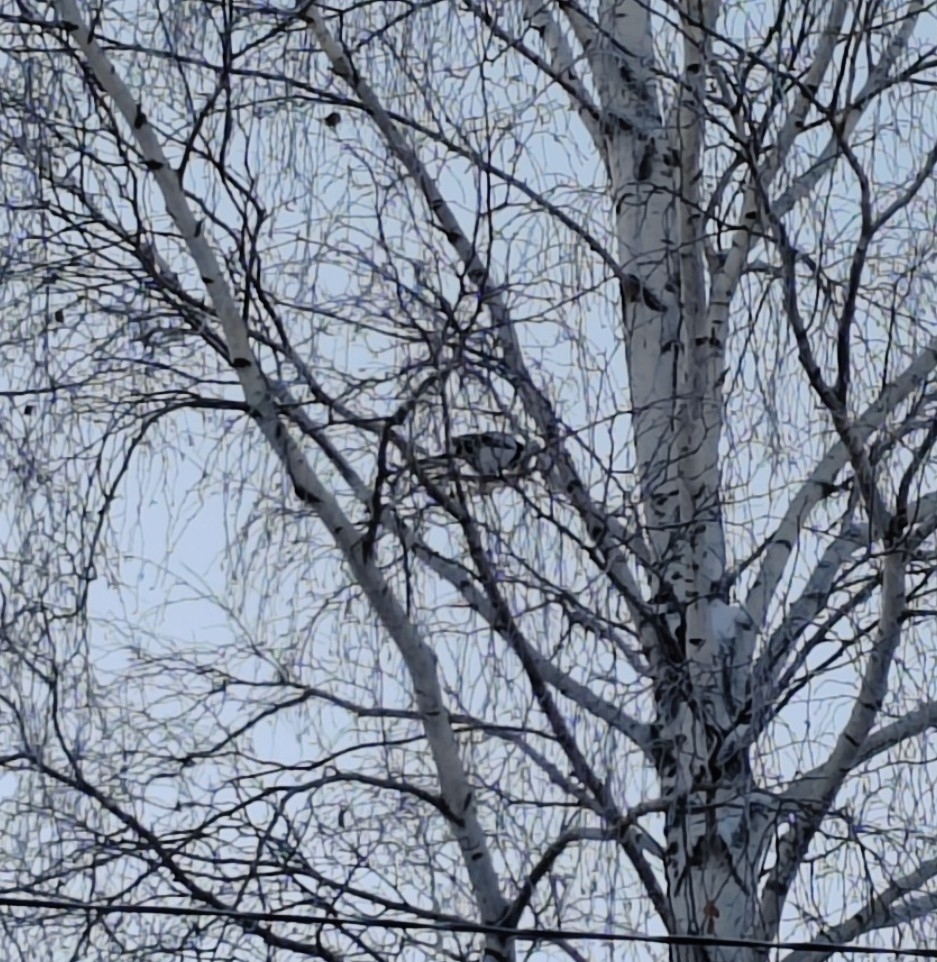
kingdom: Animalia
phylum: Chordata
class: Aves
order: Passeriformes
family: Corvidae
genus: Pica
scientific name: Pica pica
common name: Eurasian magpie
